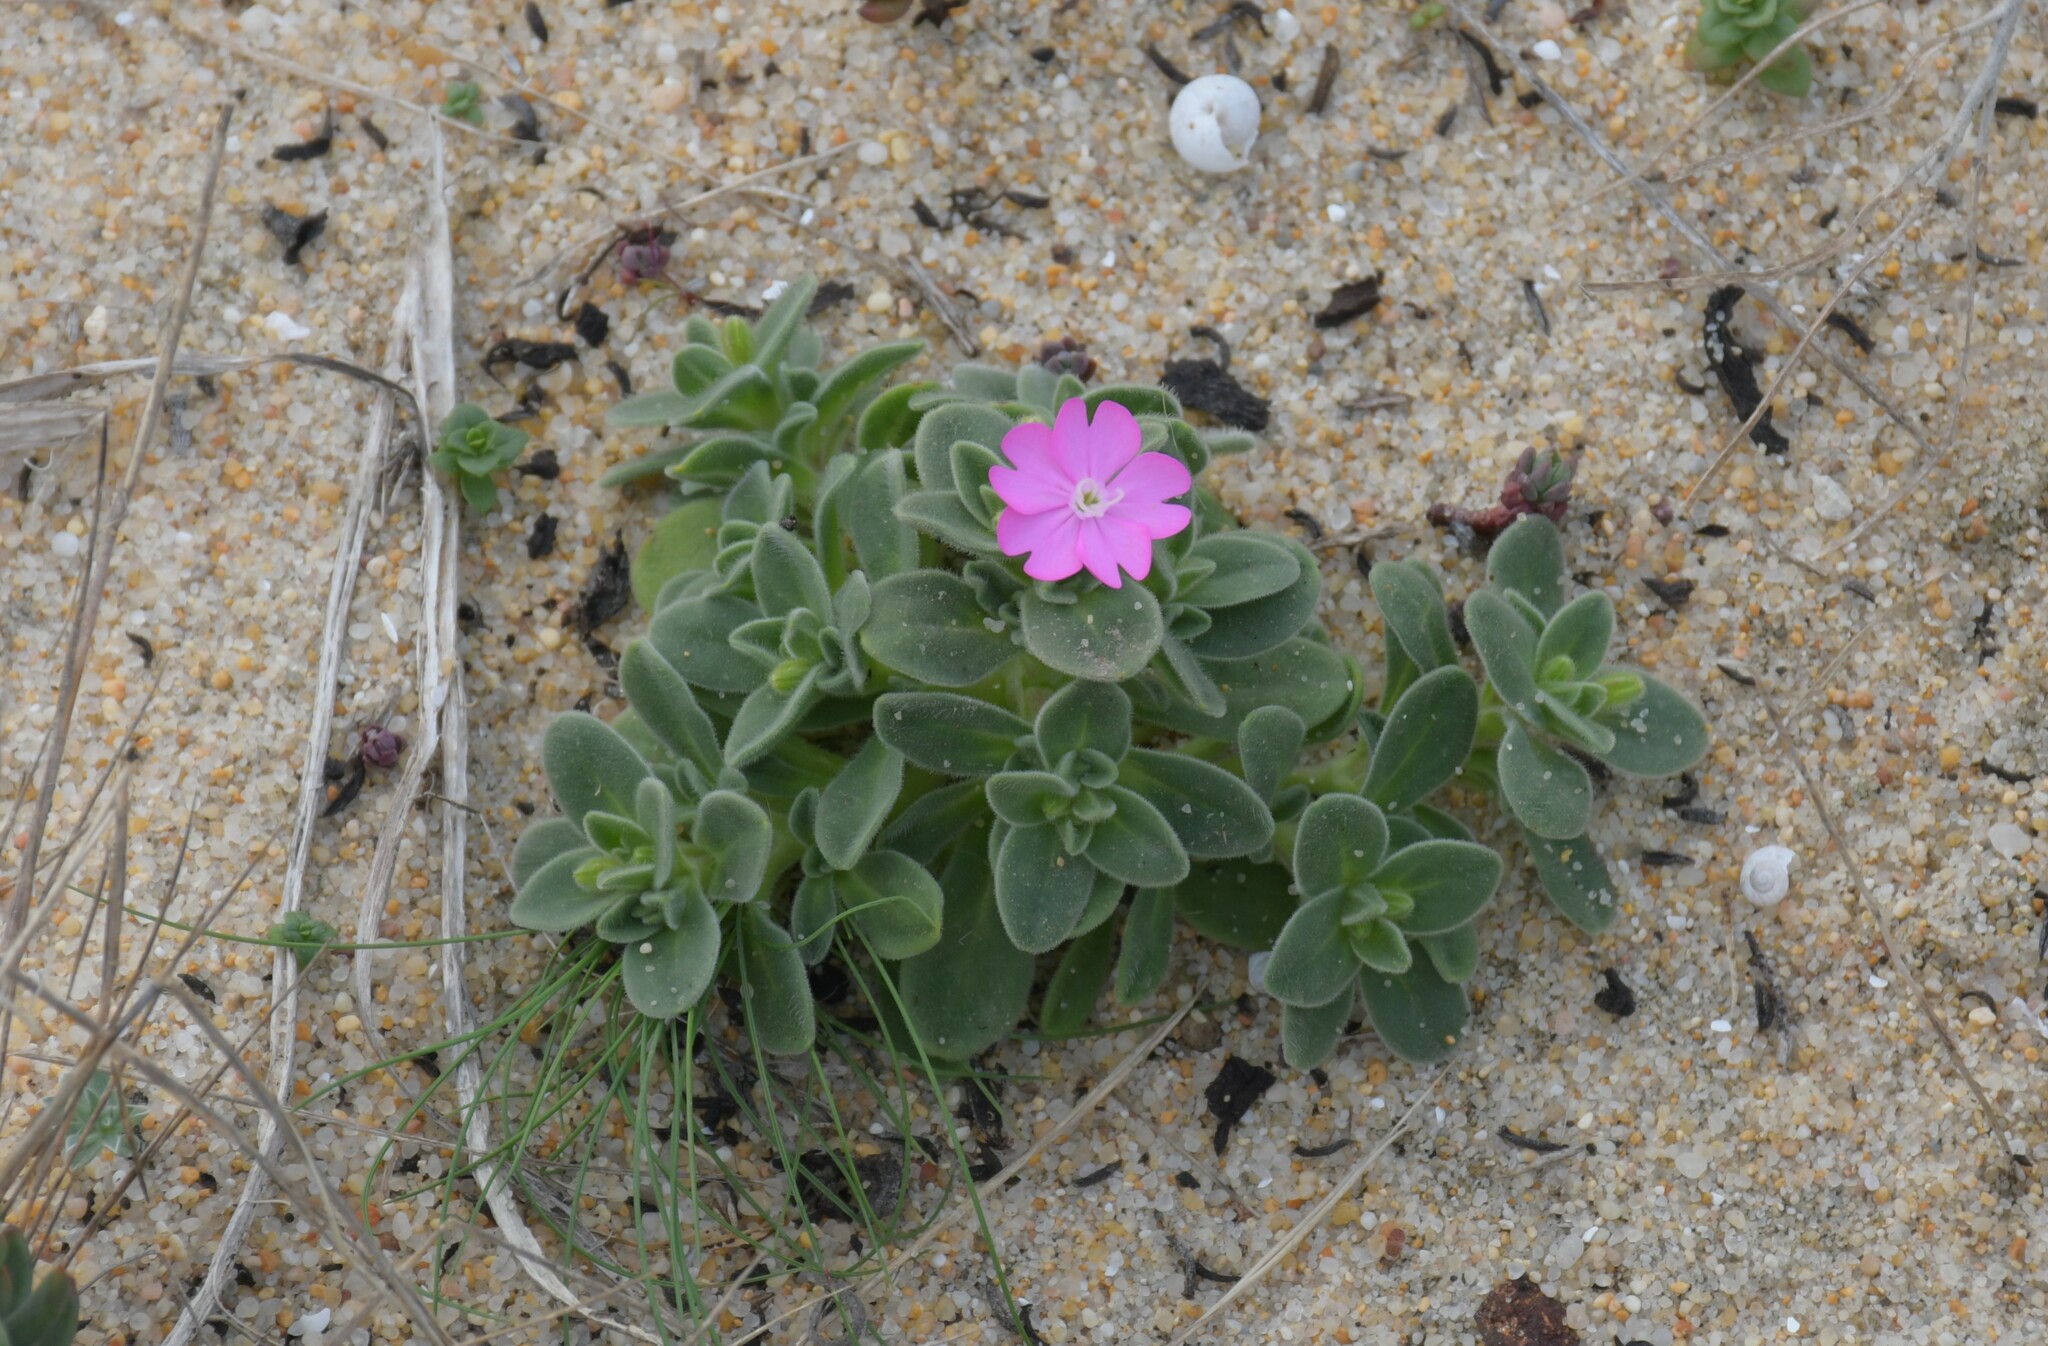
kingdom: Plantae
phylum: Tracheophyta
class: Magnoliopsida
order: Caryophyllales
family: Caryophyllaceae
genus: Silene
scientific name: Silene littorea
